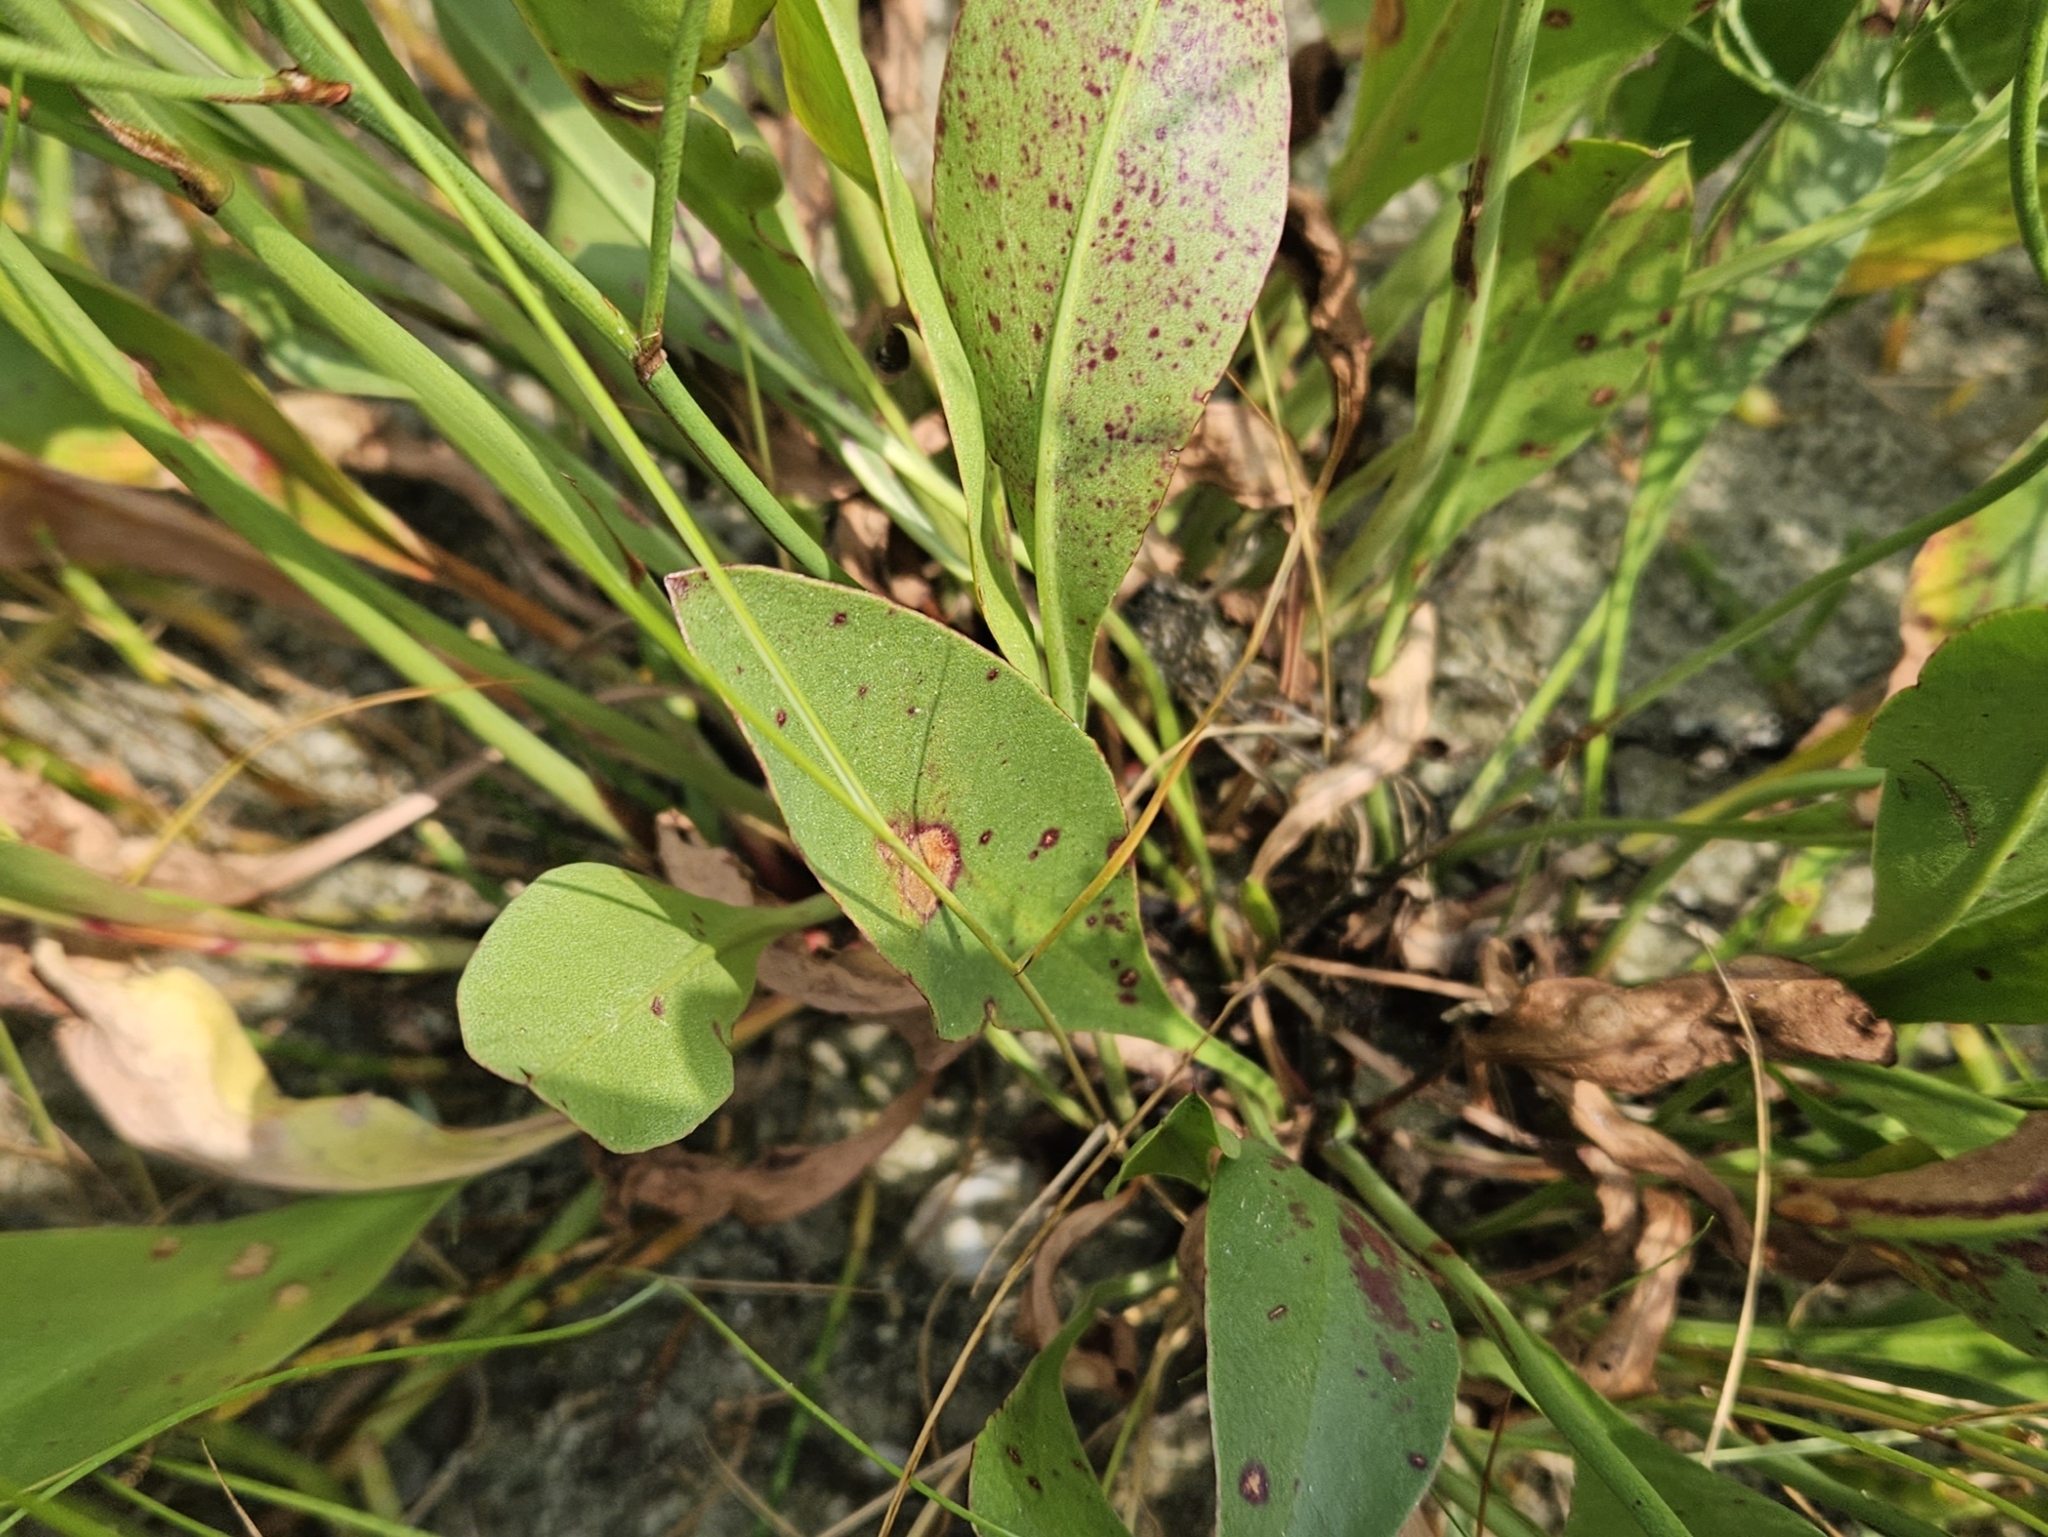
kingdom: Plantae
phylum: Tracheophyta
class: Magnoliopsida
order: Caryophyllales
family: Plumbaginaceae
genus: Limonium
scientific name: Limonium carolinianum
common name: Carolina sea lavender
